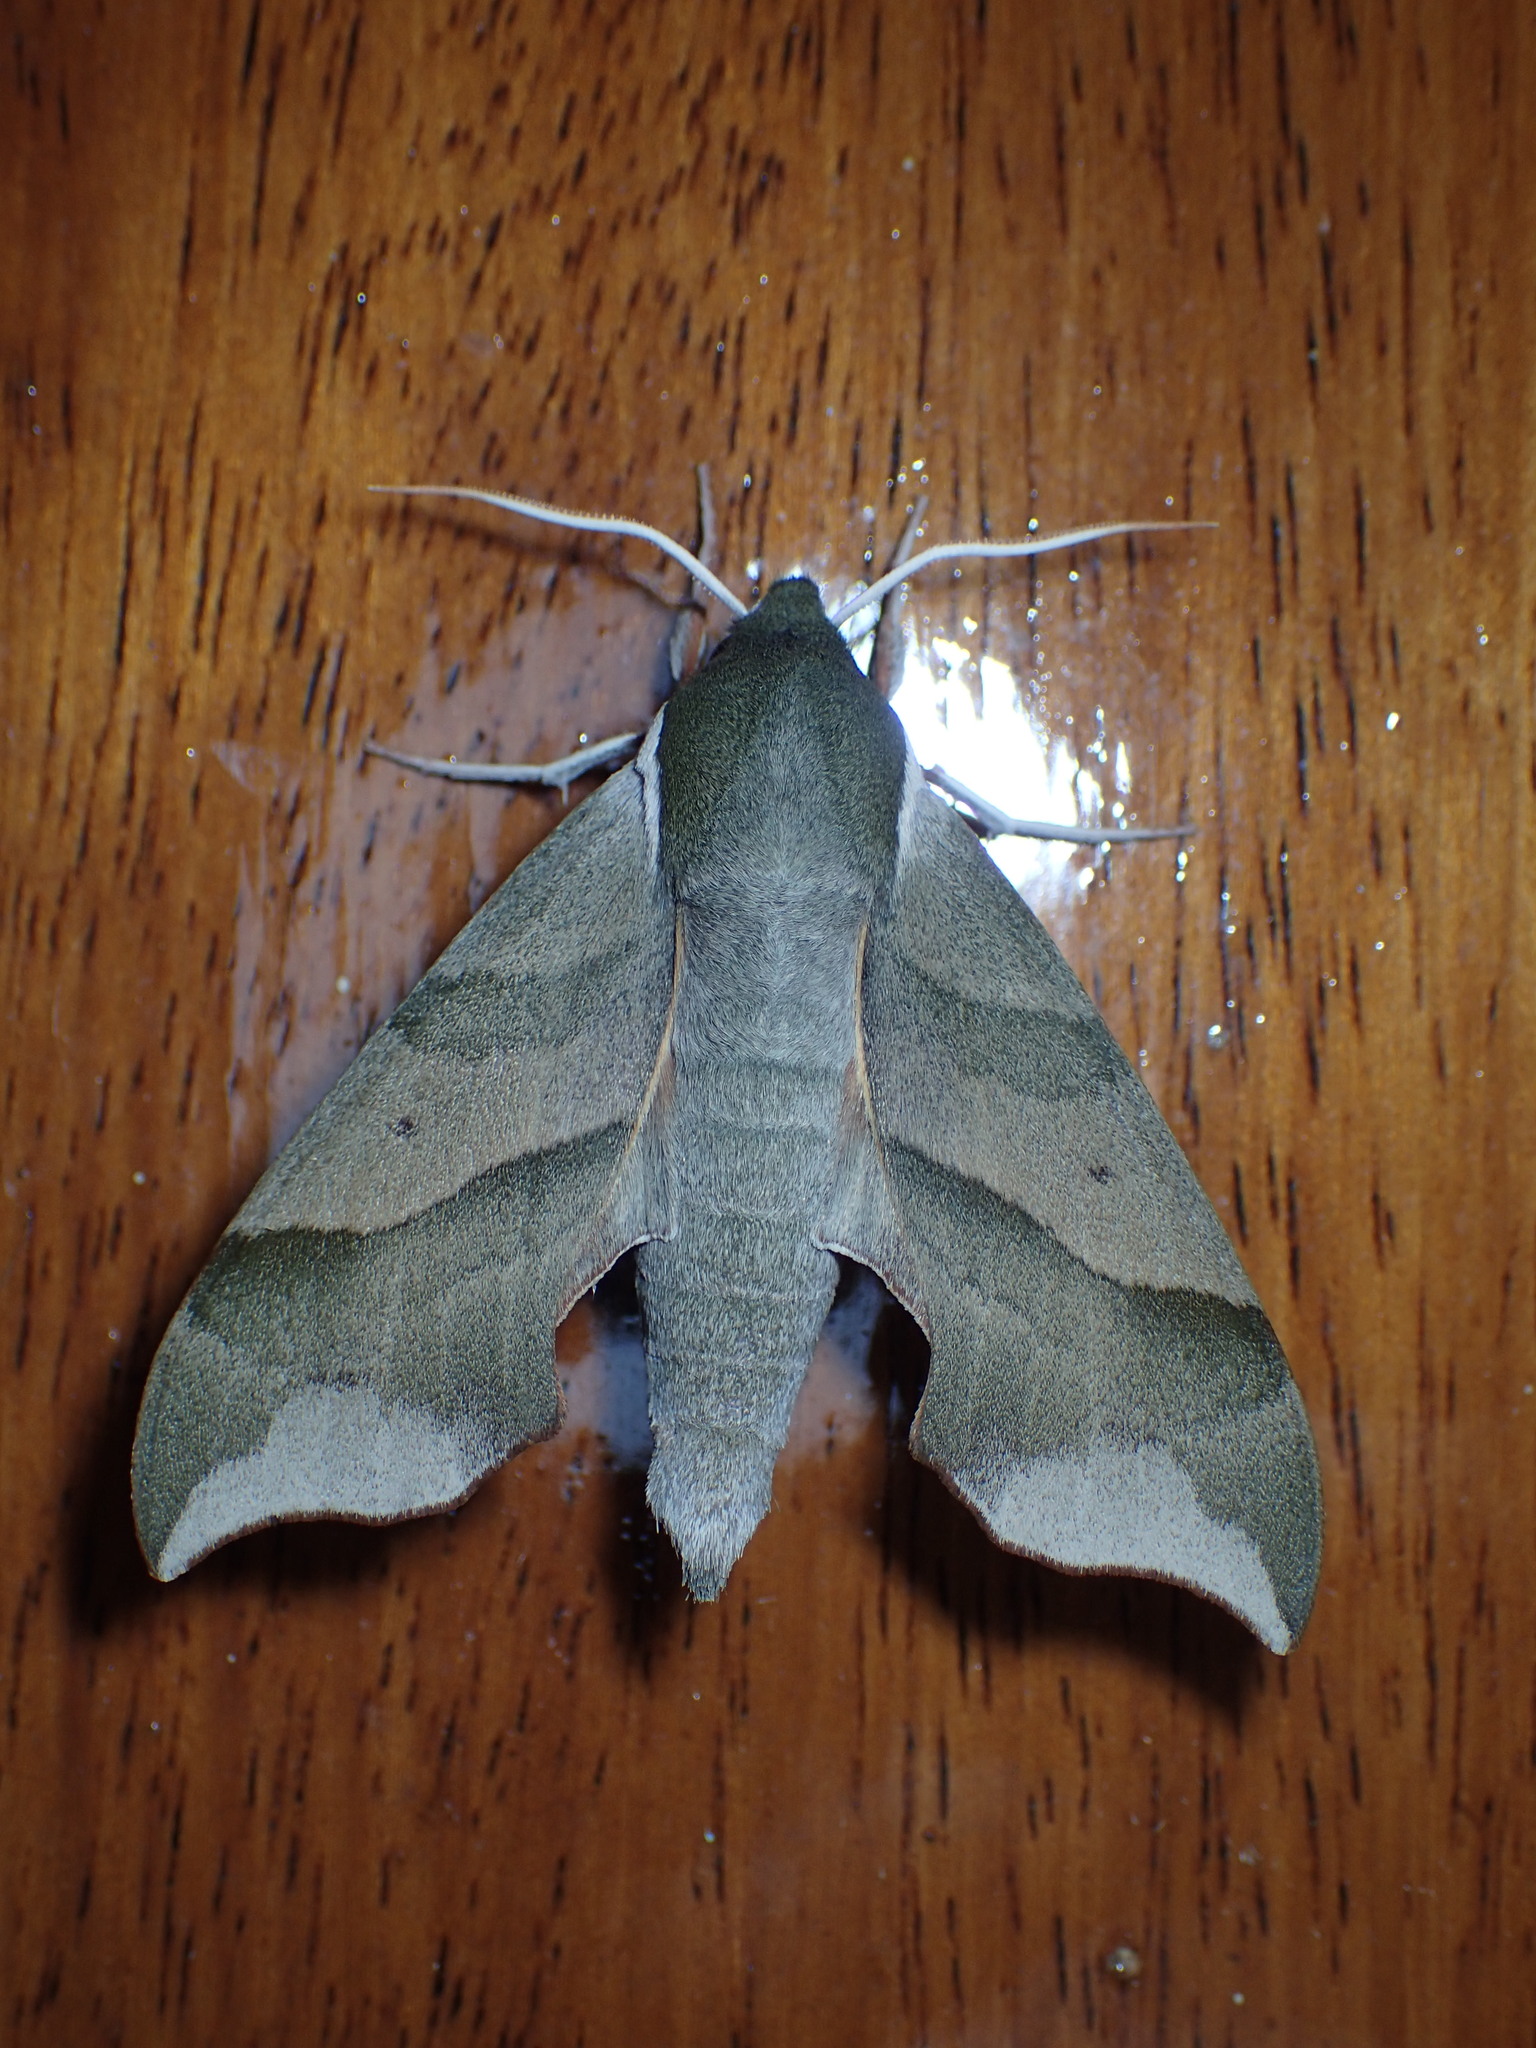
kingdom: Animalia
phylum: Arthropoda
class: Insecta
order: Lepidoptera
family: Sphingidae
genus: Darapsa
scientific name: Darapsa myron
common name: Hog sphinx
